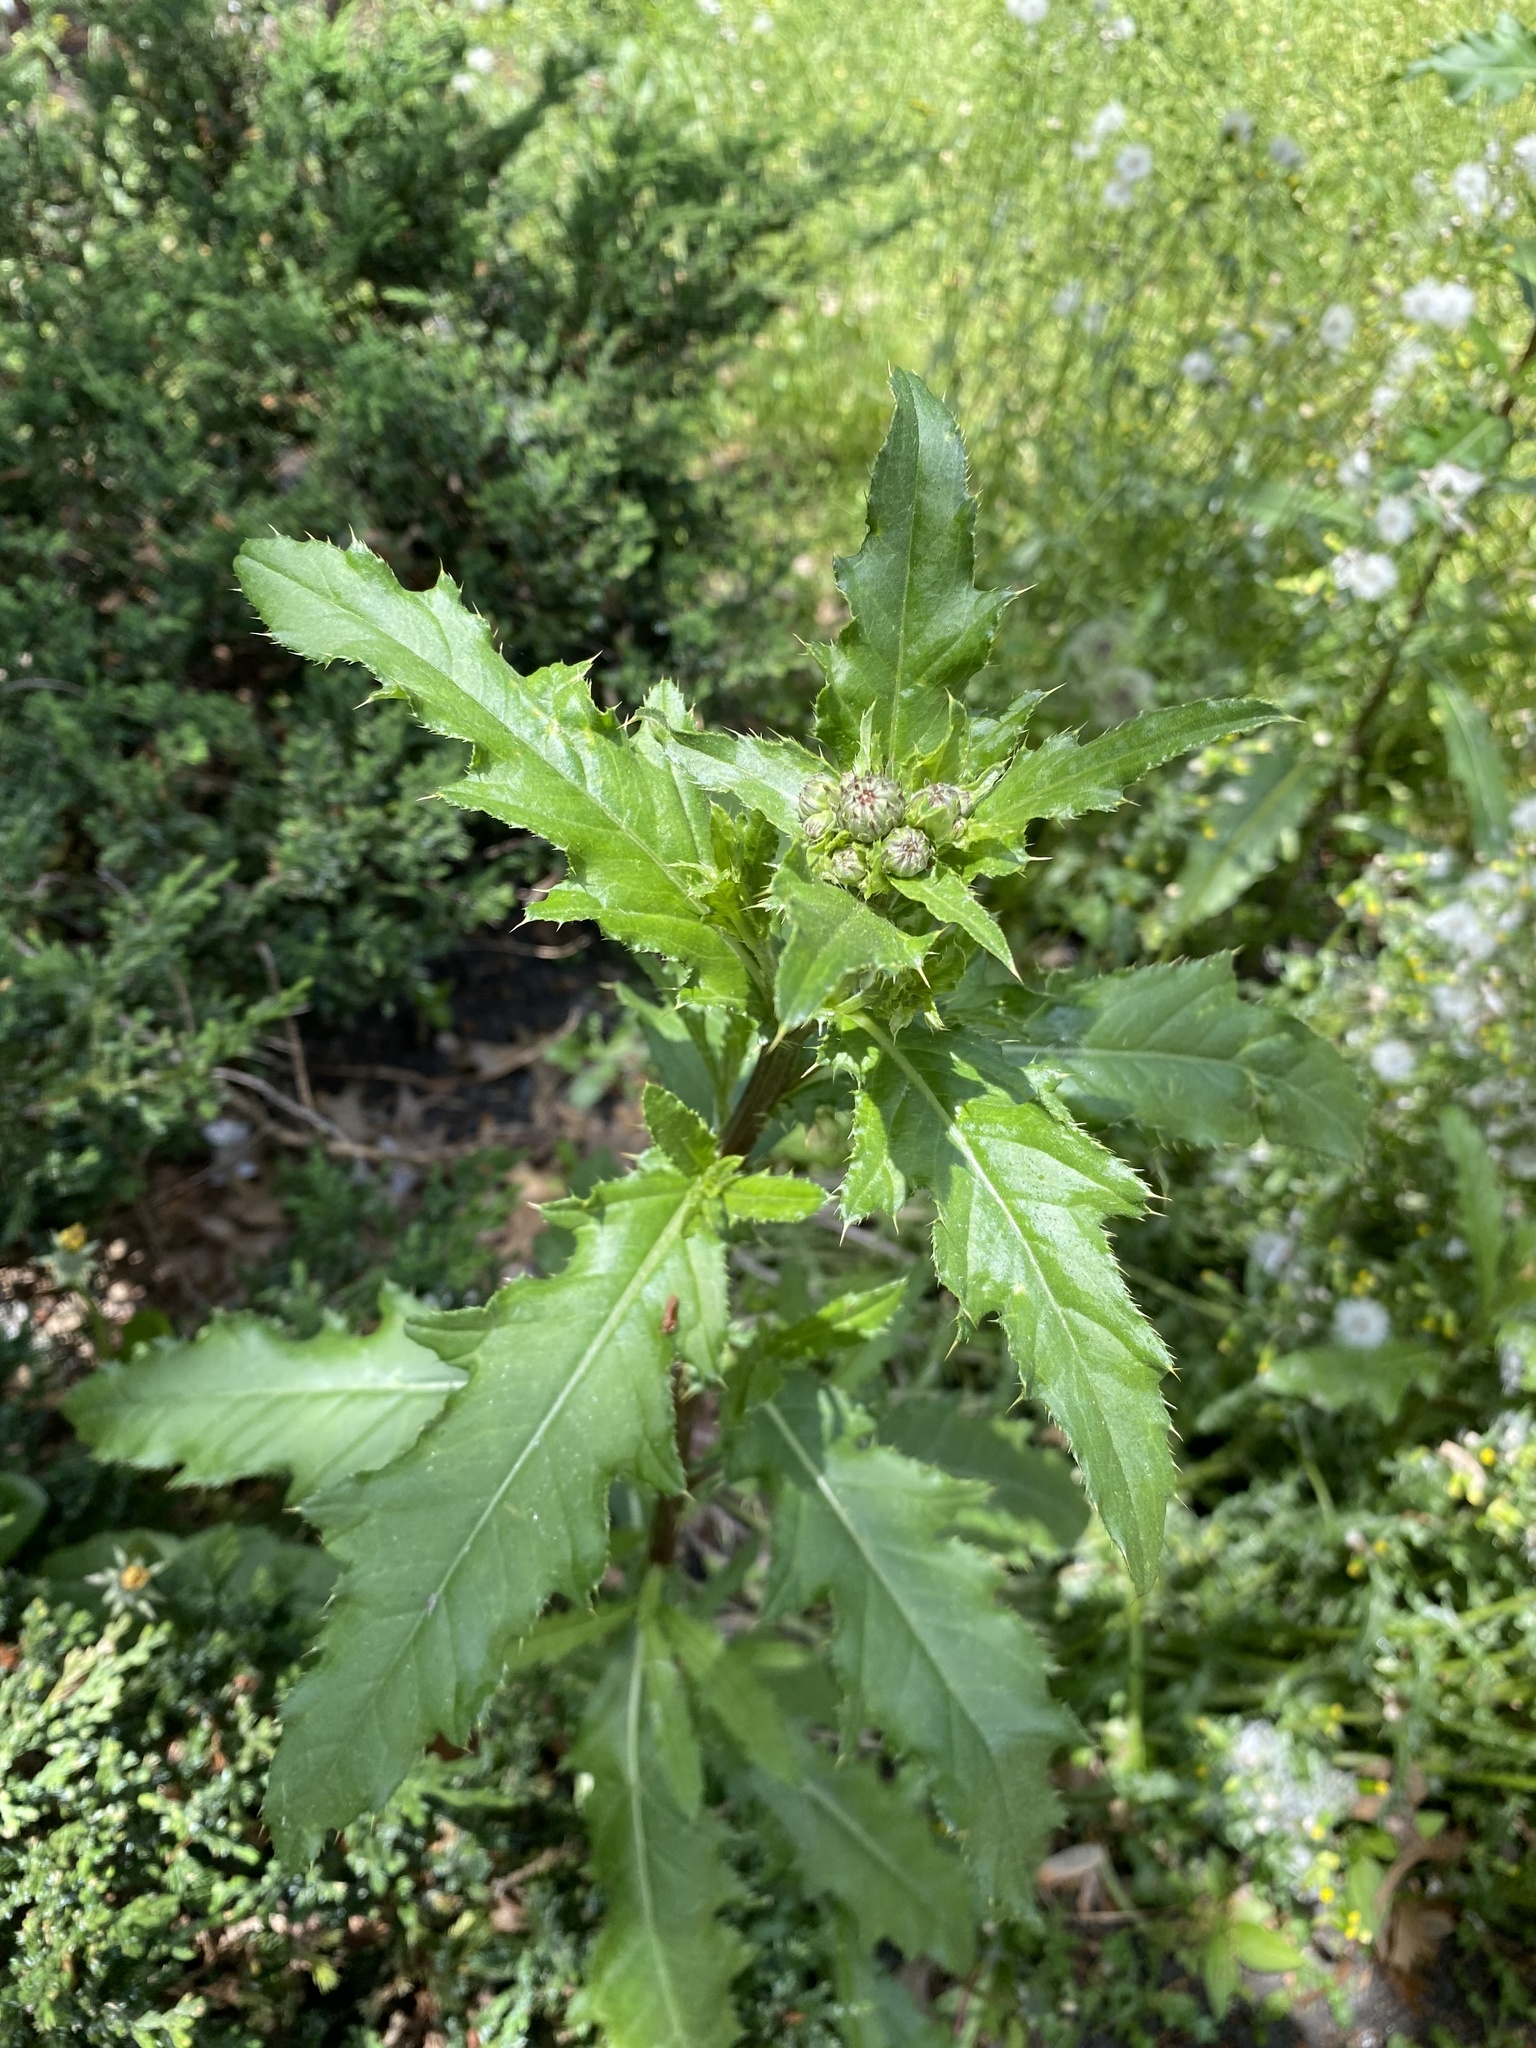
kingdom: Plantae
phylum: Tracheophyta
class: Magnoliopsida
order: Asterales
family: Asteraceae
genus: Cirsium
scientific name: Cirsium arvense
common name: Creeping thistle
